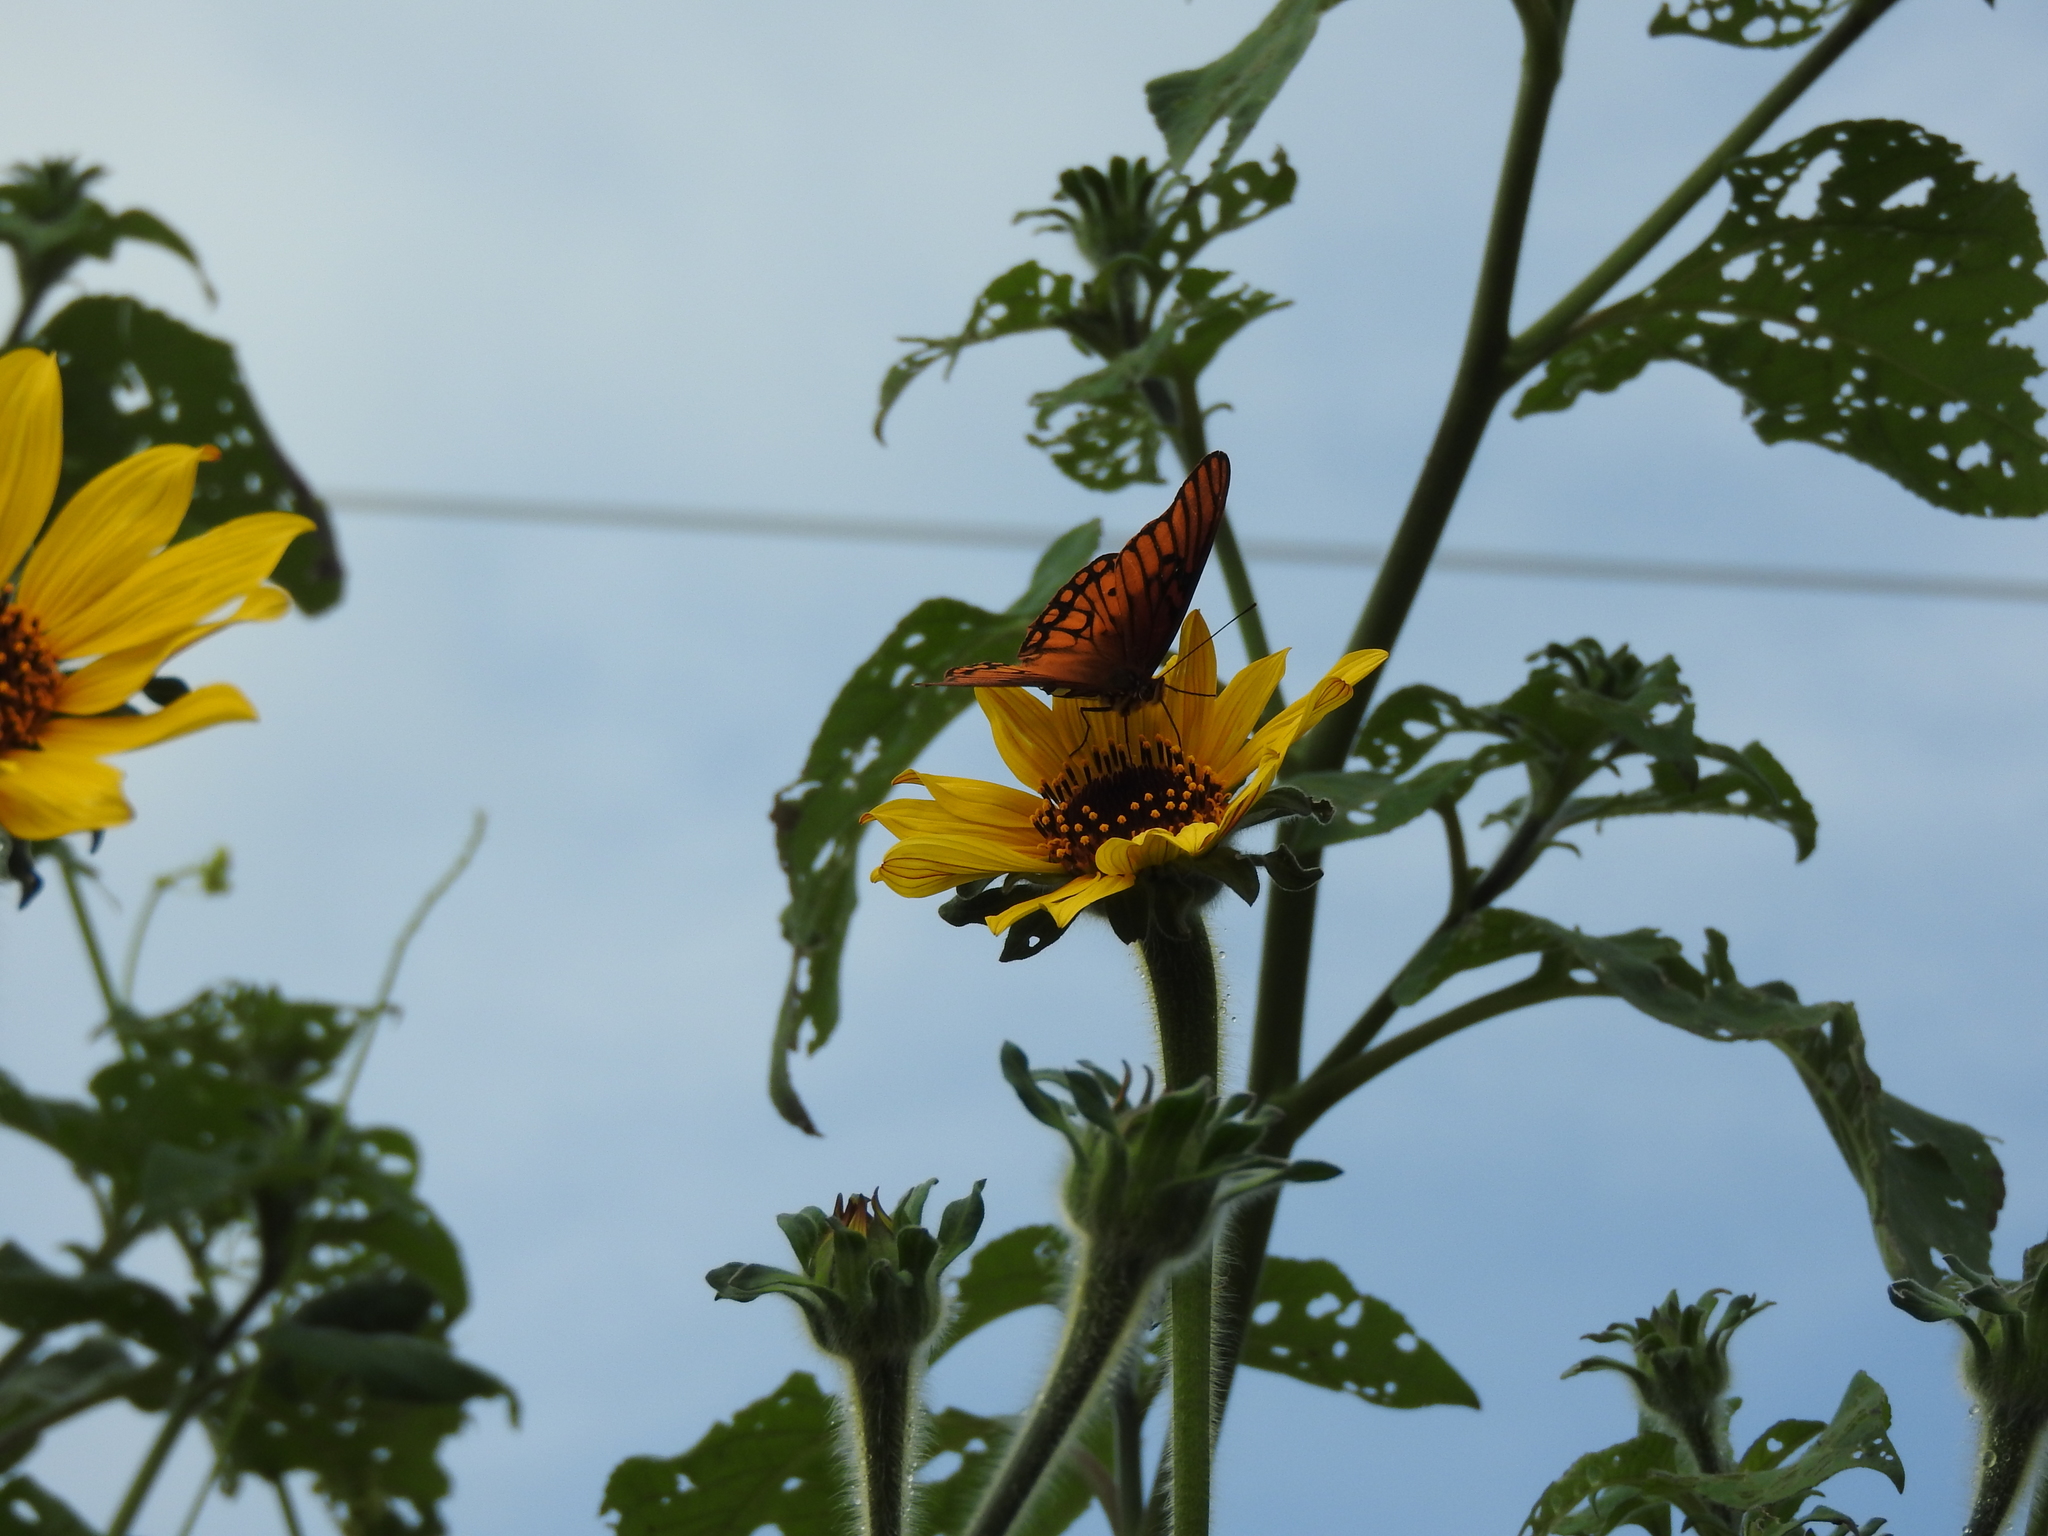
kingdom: Plantae
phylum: Tracheophyta
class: Magnoliopsida
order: Asterales
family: Asteraceae
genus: Tithonia
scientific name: Tithonia tubaeformis
